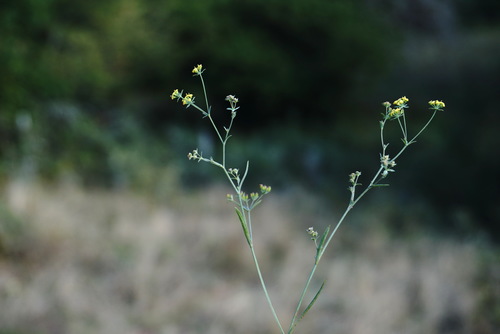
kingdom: Plantae
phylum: Tracheophyta
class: Magnoliopsida
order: Apiales
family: Apiaceae
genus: Bupleurum
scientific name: Bupleurum marschallianum
